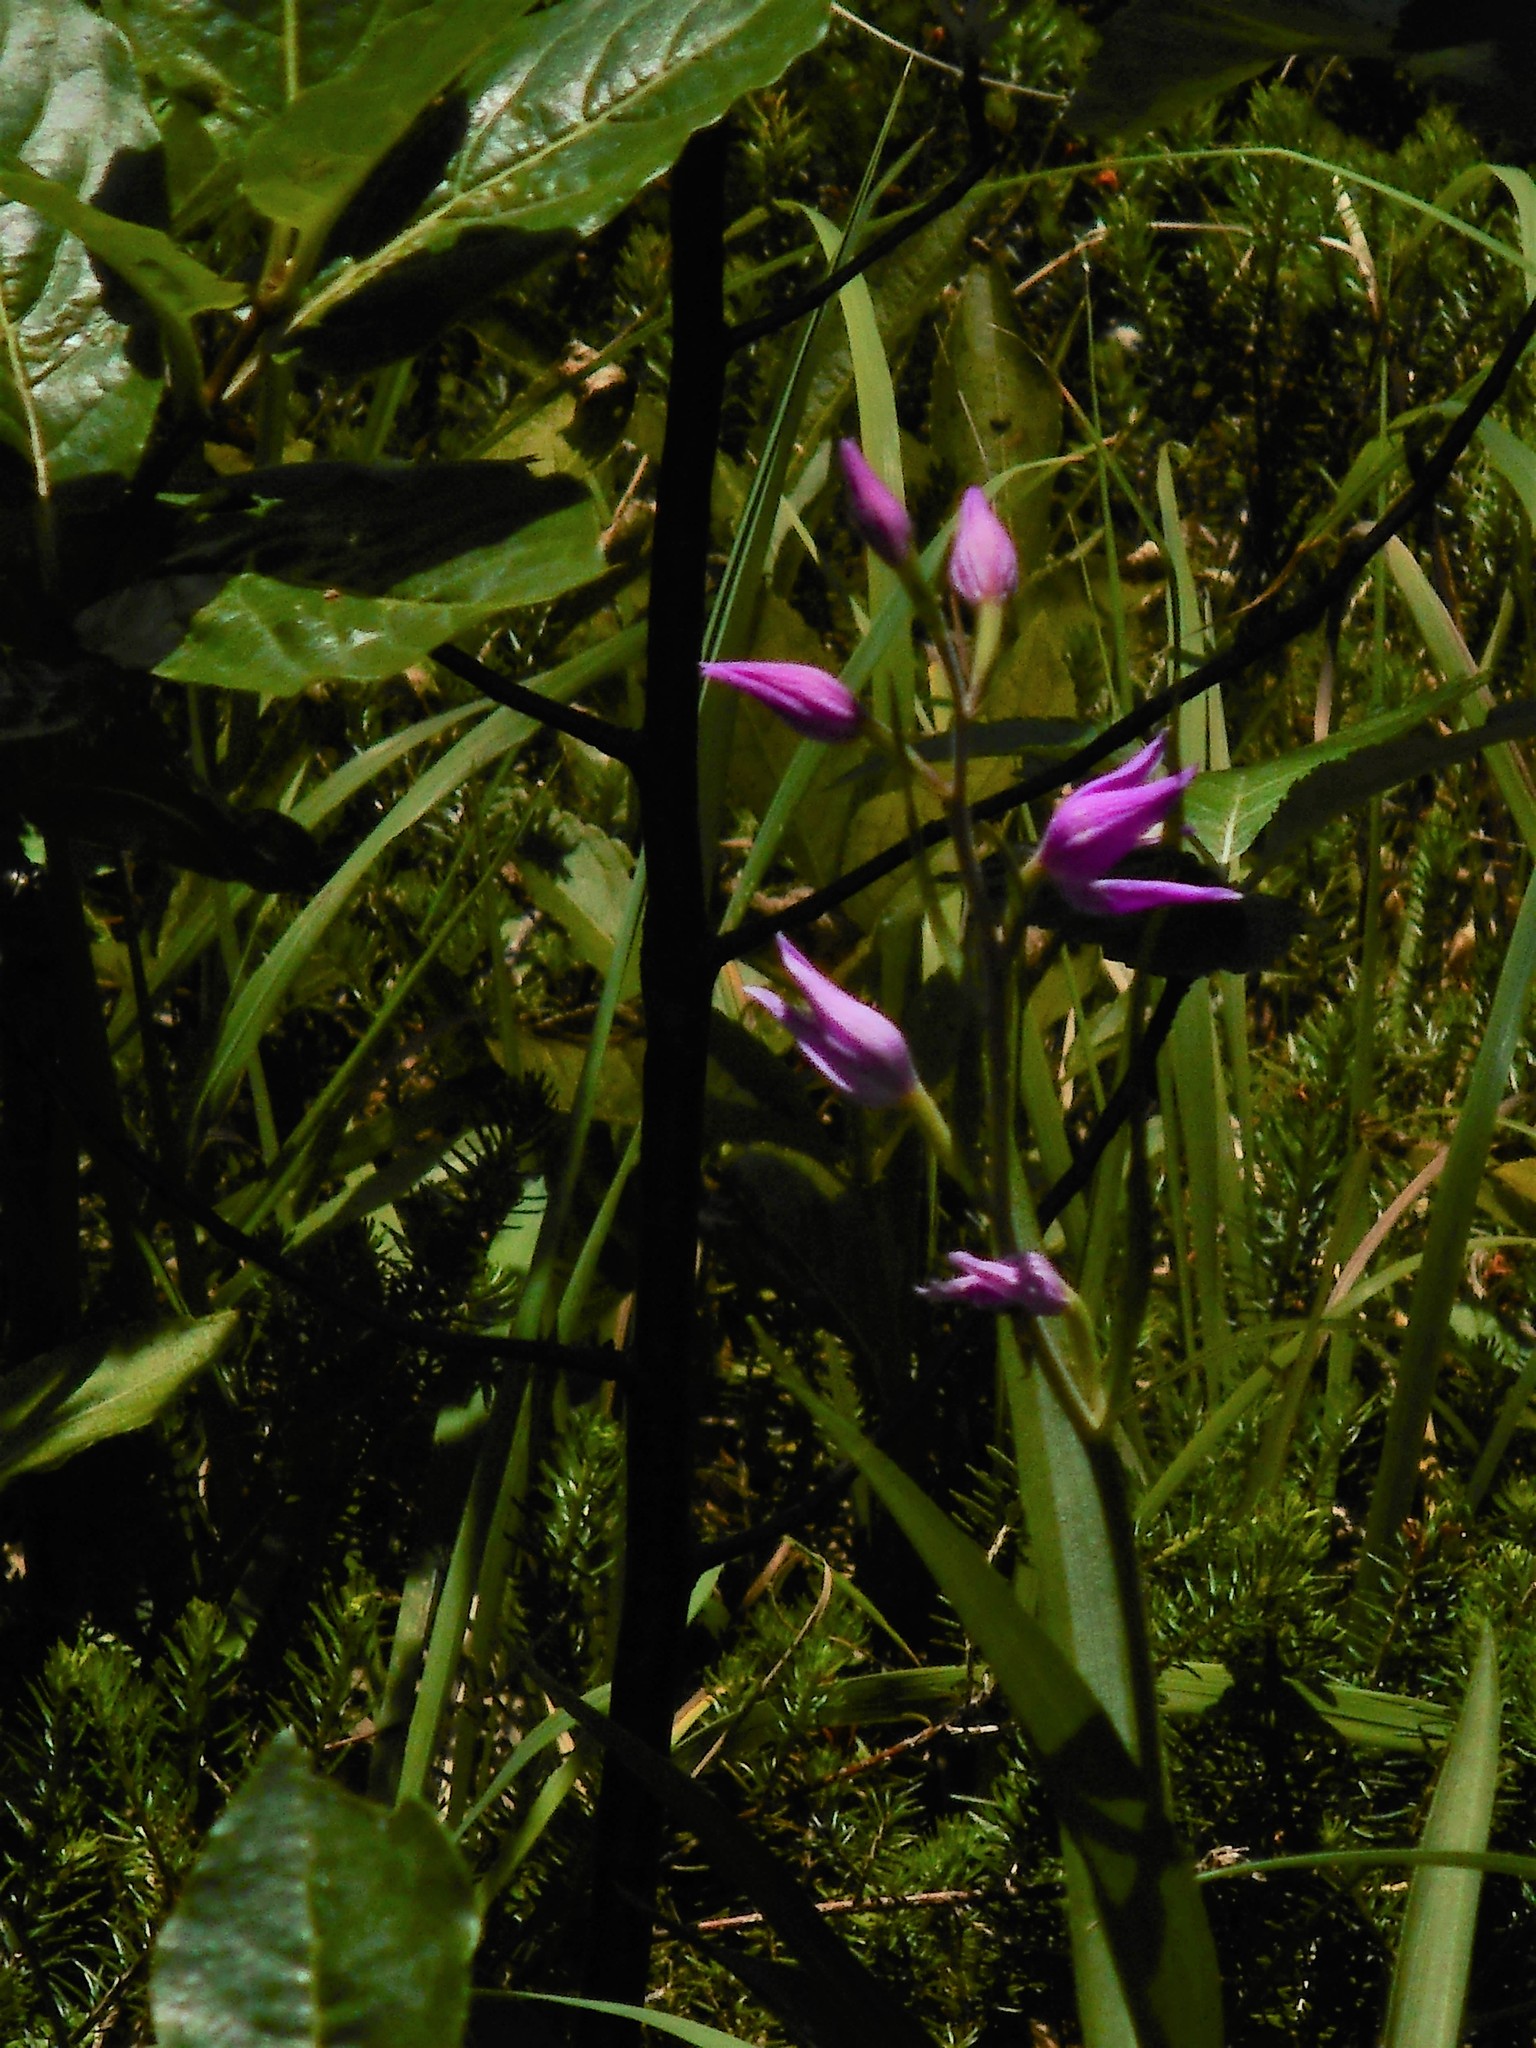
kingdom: Plantae
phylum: Tracheophyta
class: Liliopsida
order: Asparagales
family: Orchidaceae
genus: Cephalanthera
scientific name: Cephalanthera rubra
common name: Red helleborine
